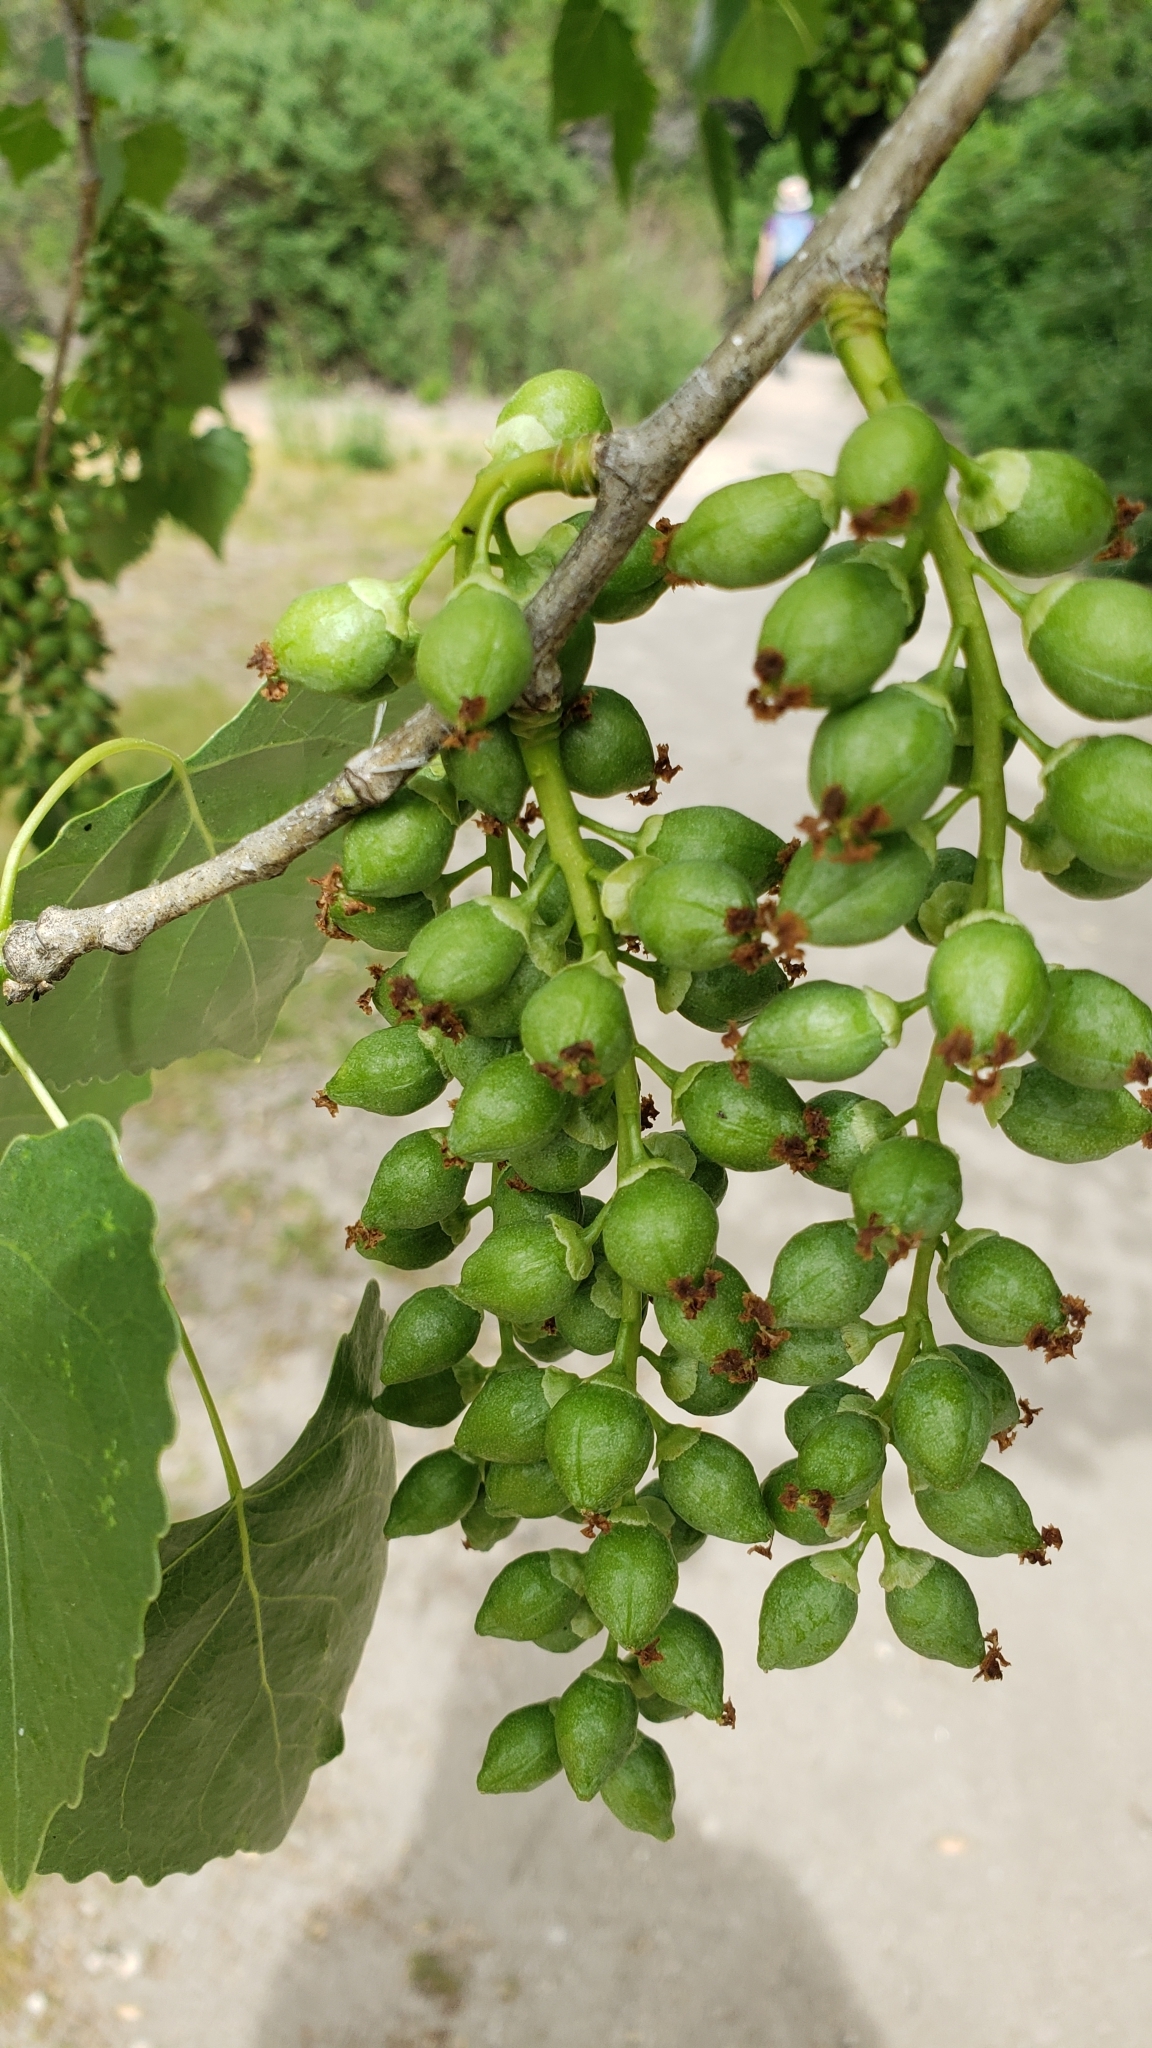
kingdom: Plantae
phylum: Tracheophyta
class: Magnoliopsida
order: Malpighiales
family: Salicaceae
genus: Populus
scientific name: Populus fremontii
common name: Fremont's cottonwood
